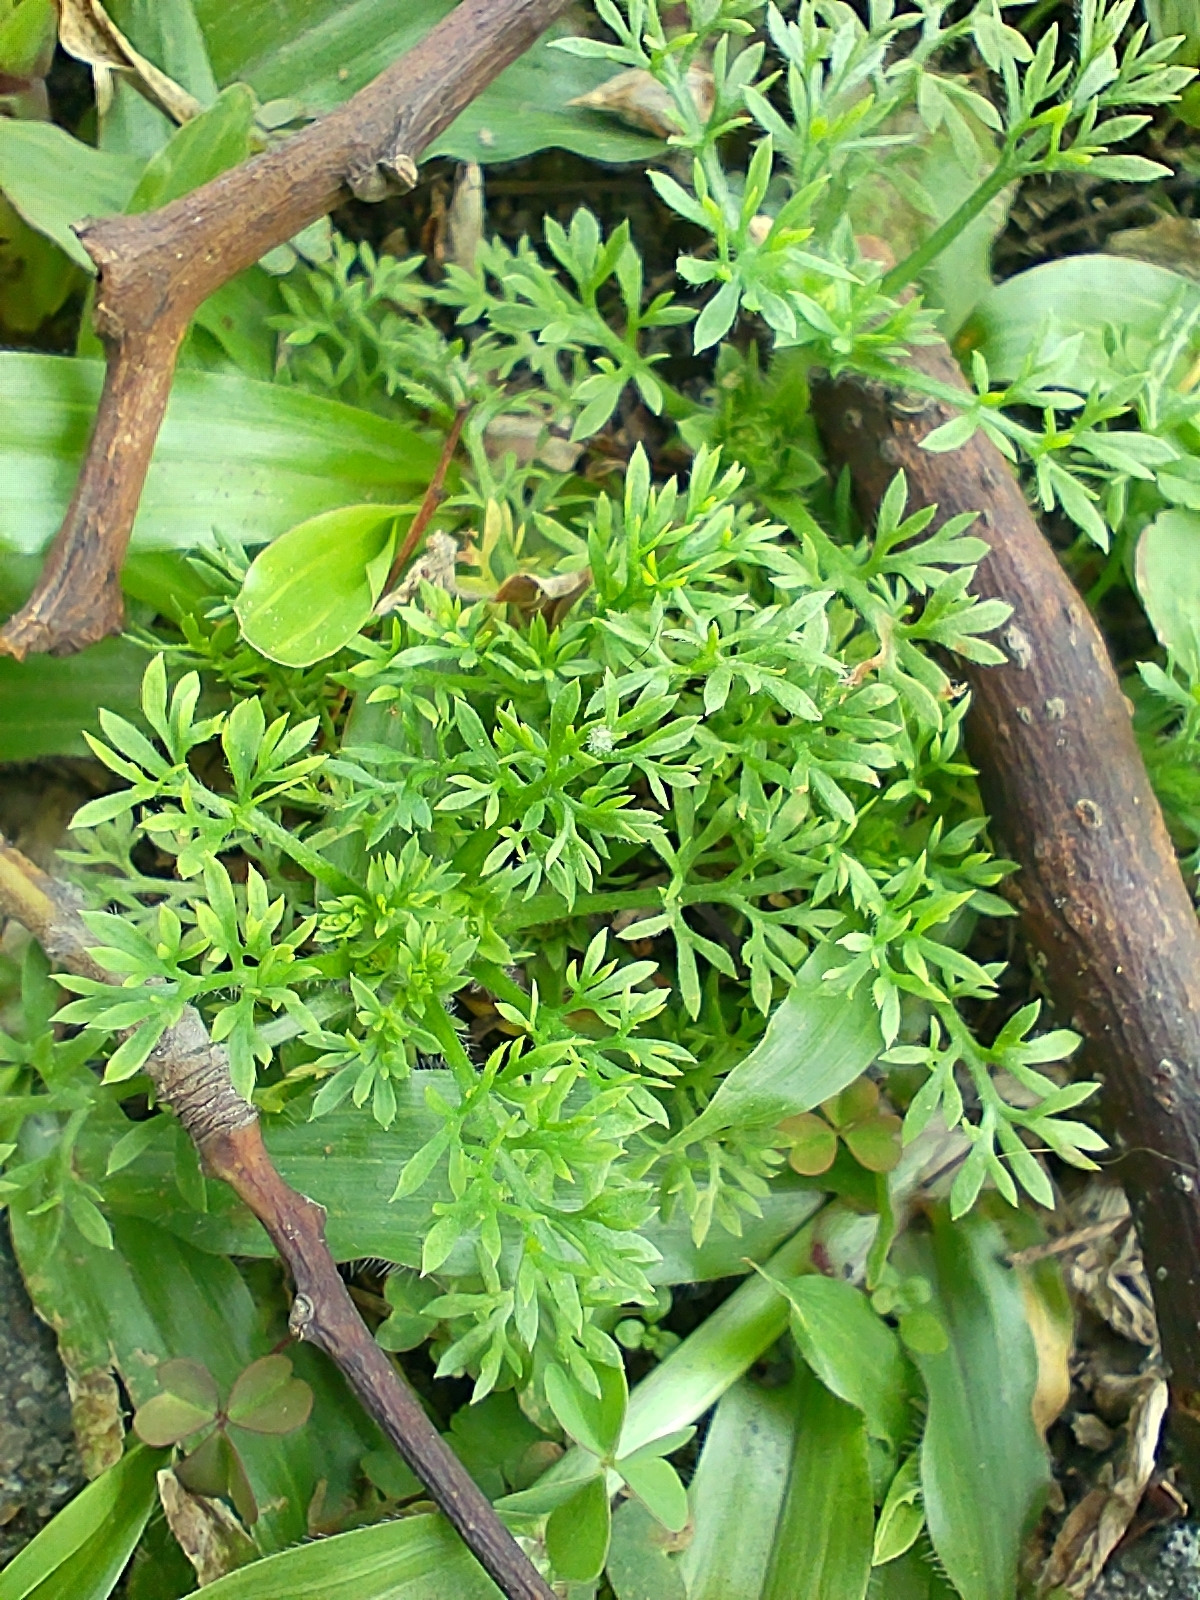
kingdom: Plantae
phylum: Tracheophyta
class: Magnoliopsida
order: Asterales
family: Asteraceae
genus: Soliva
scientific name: Soliva sessilis
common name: Field burrweed
